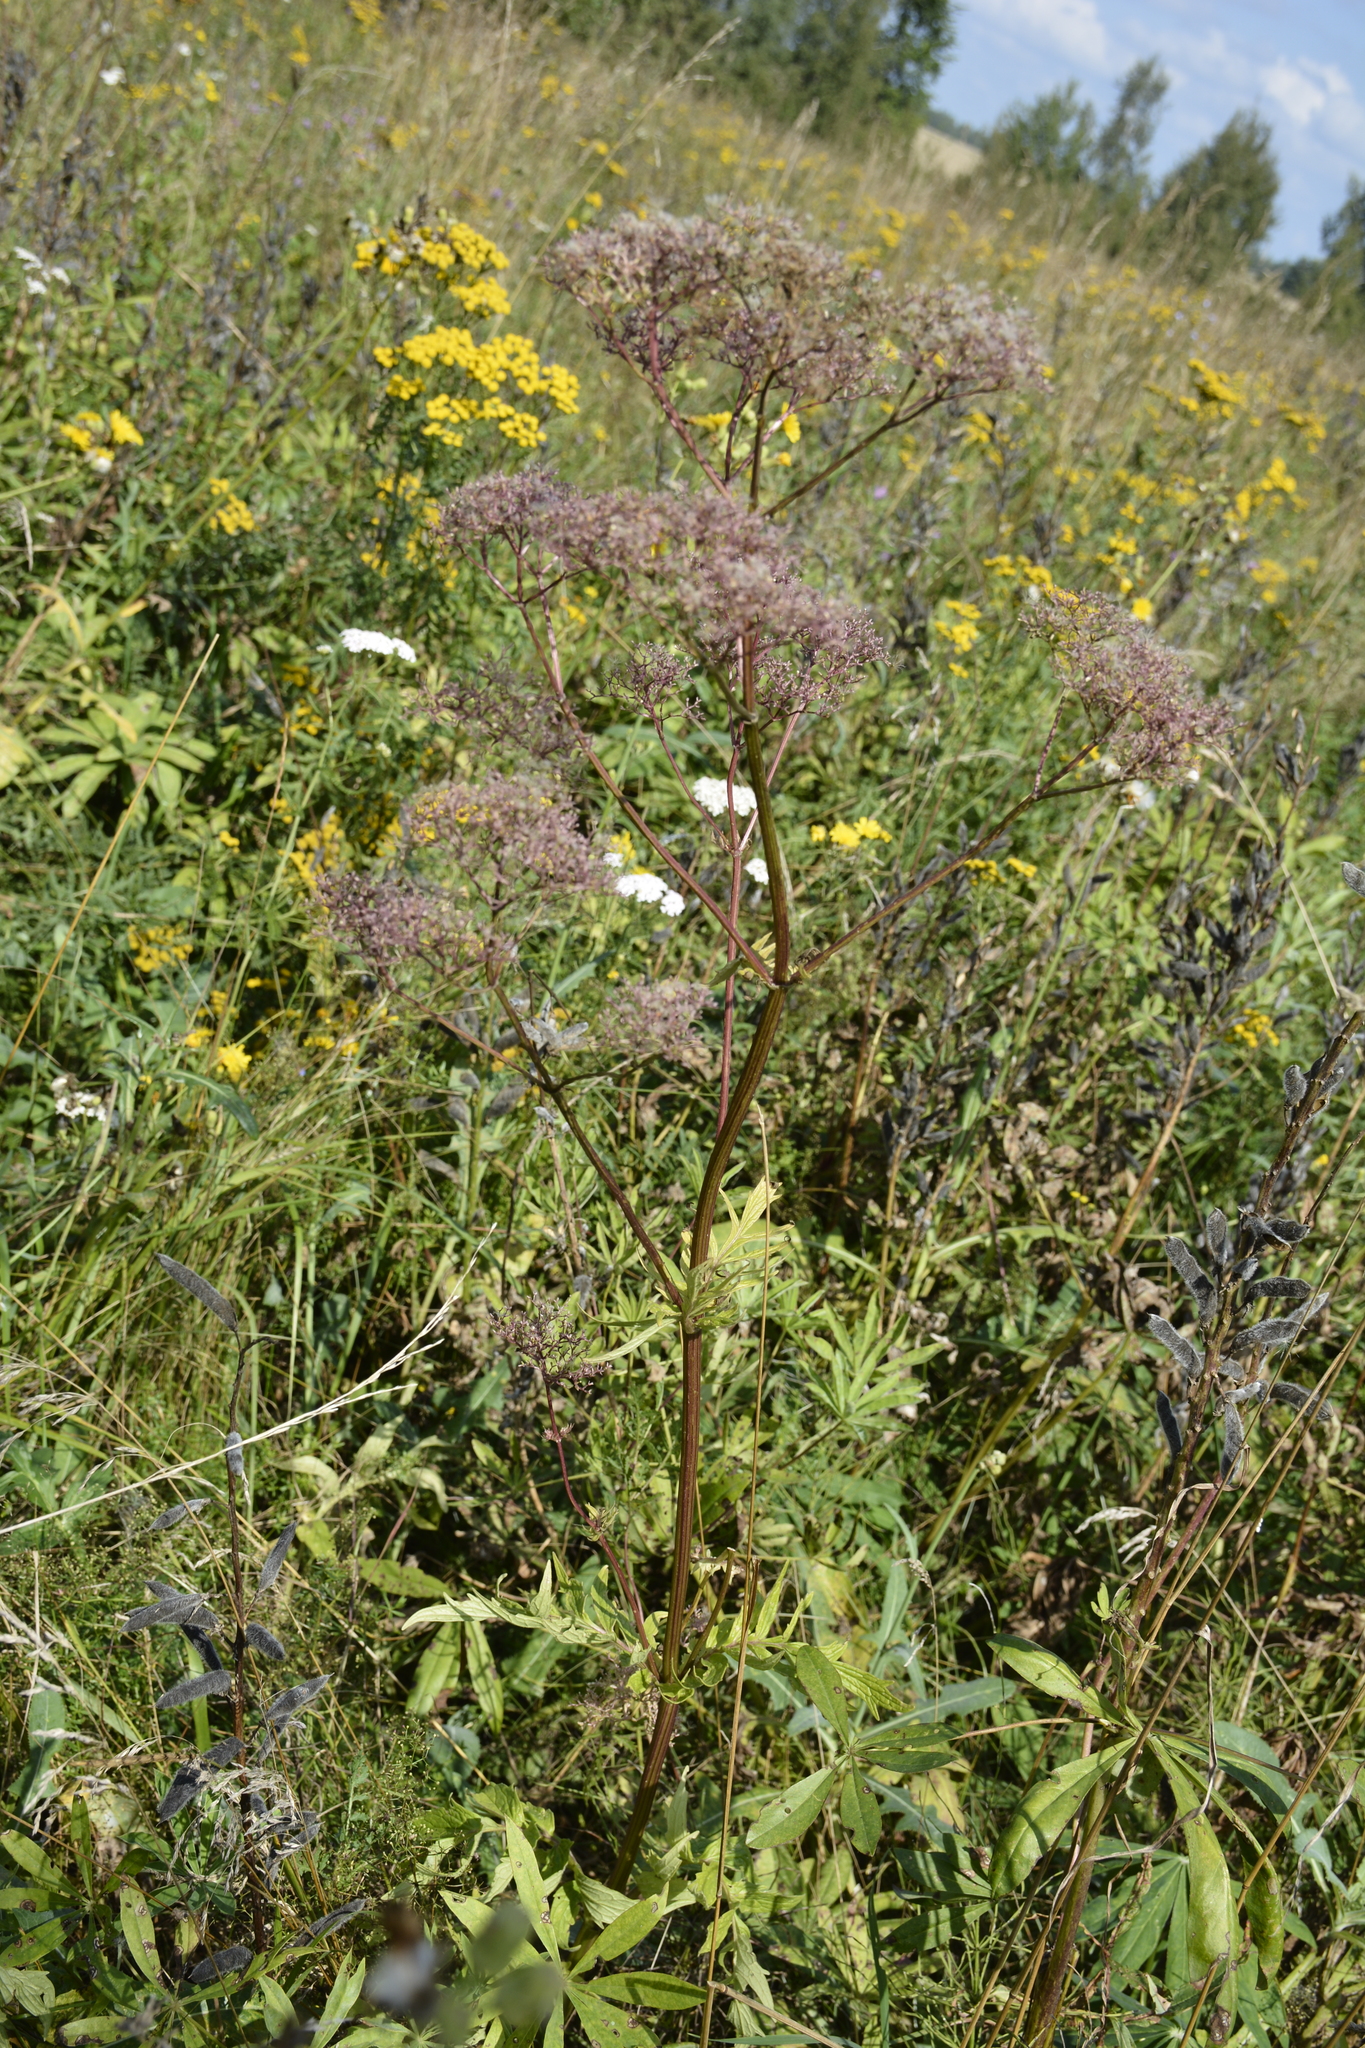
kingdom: Plantae
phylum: Tracheophyta
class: Magnoliopsida
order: Dipsacales
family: Caprifoliaceae
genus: Valeriana
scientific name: Valeriana officinalis
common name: Common valerian
